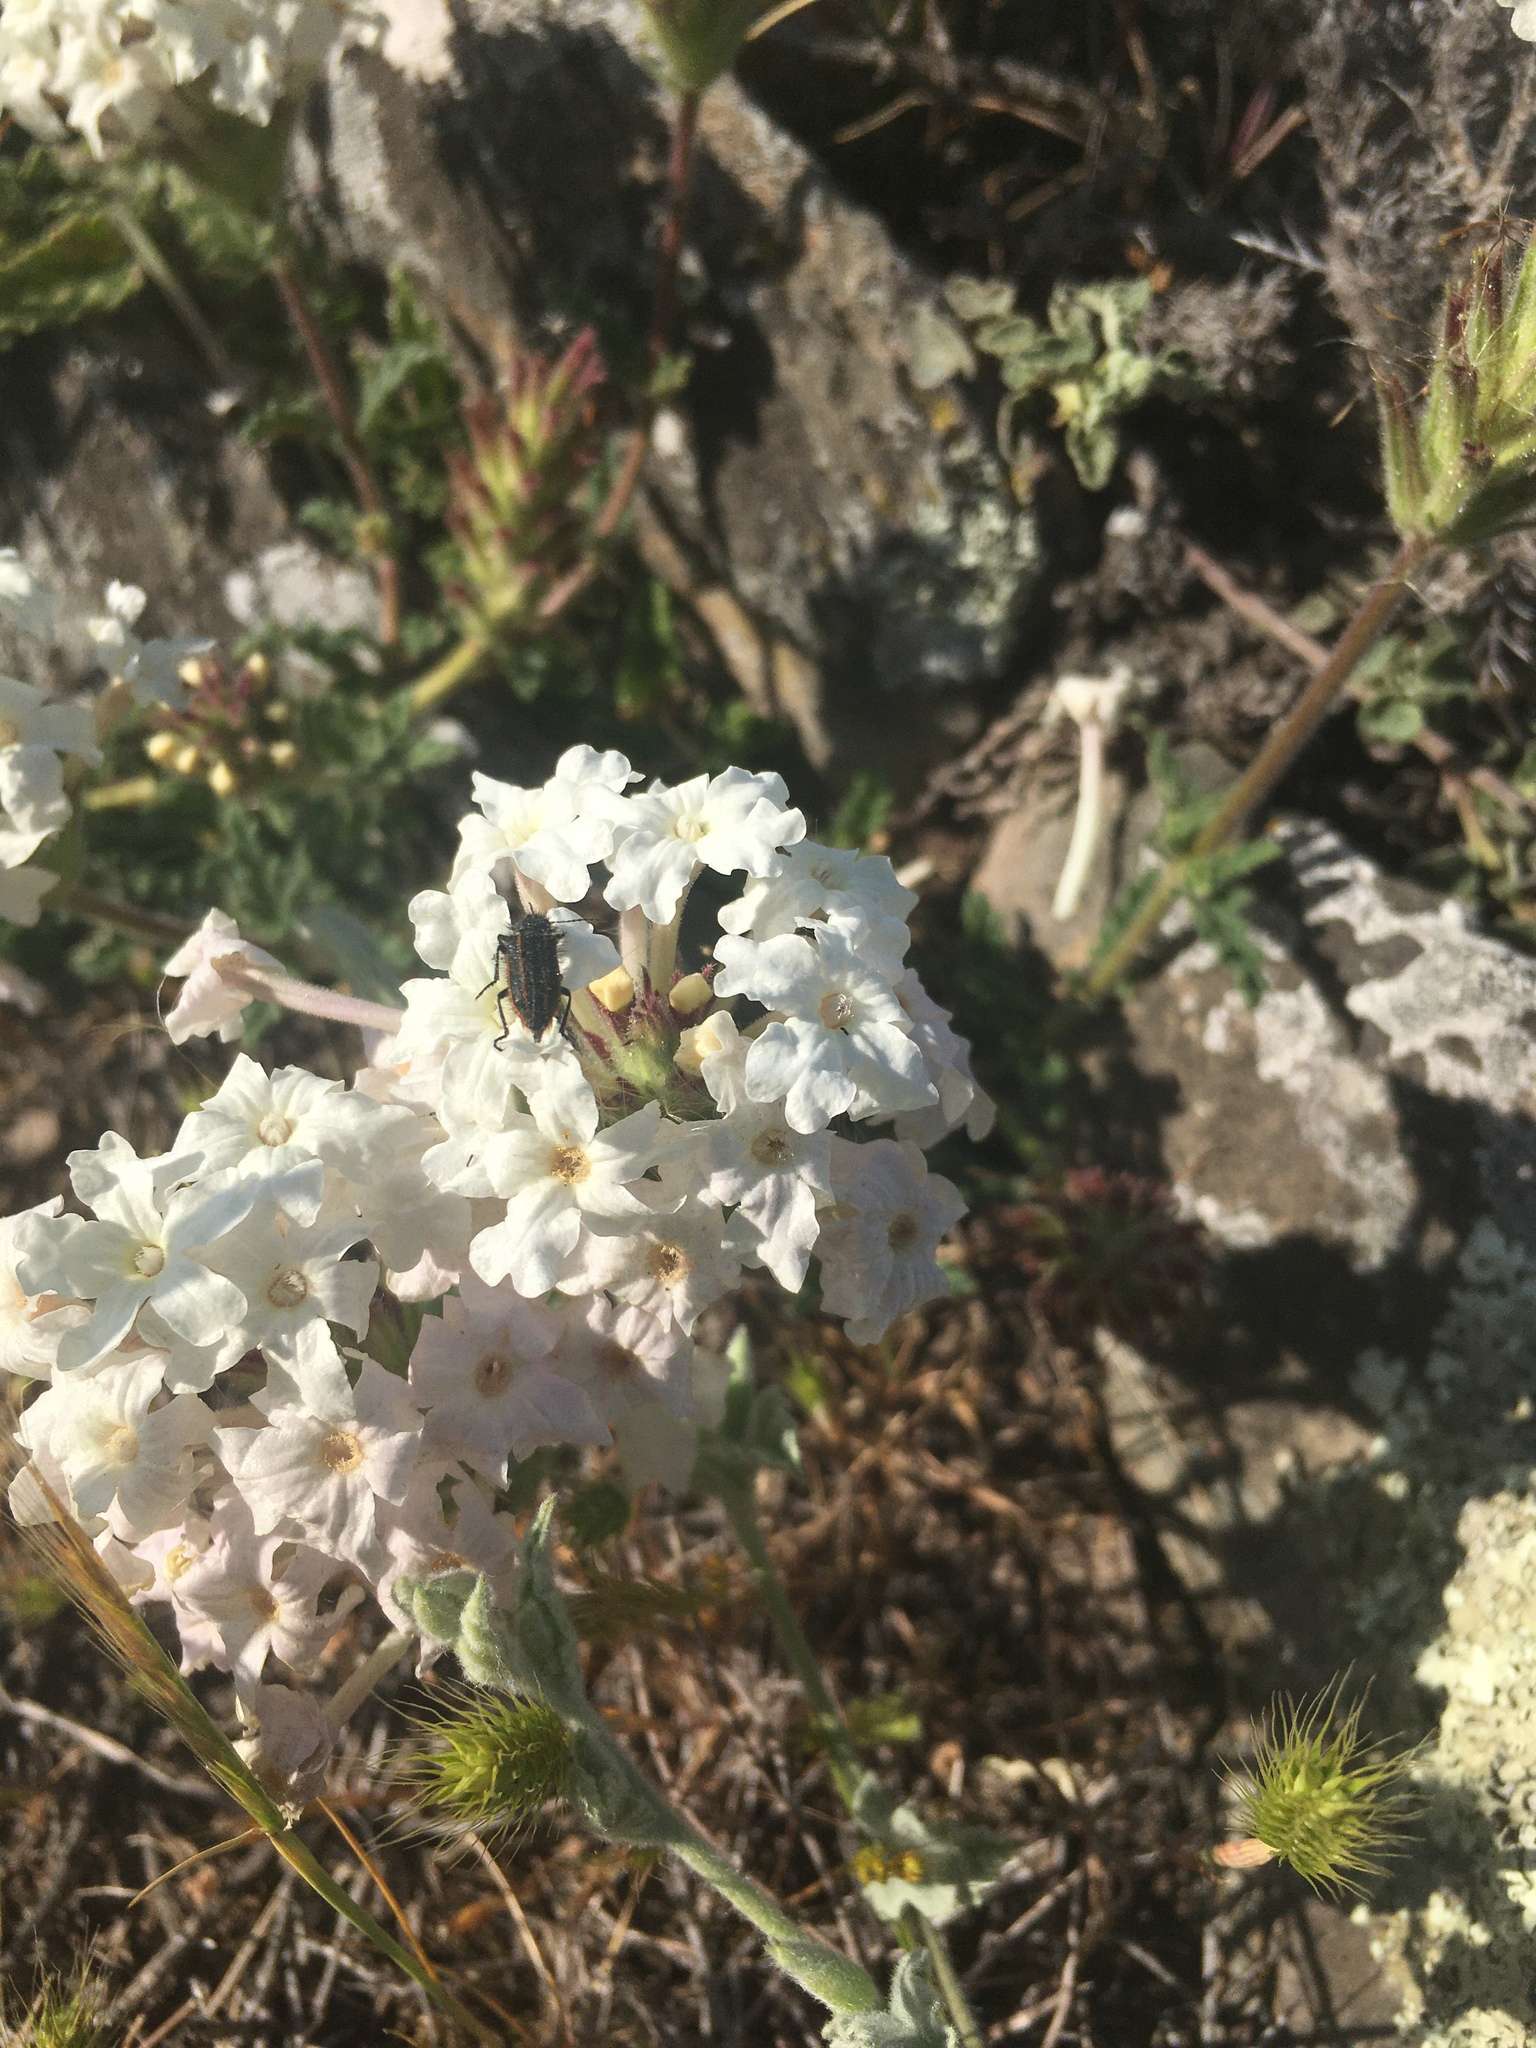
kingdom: Plantae
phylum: Tracheophyta
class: Magnoliopsida
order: Lamiales
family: Verbenaceae
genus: Verbena
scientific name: Verbena platensis
